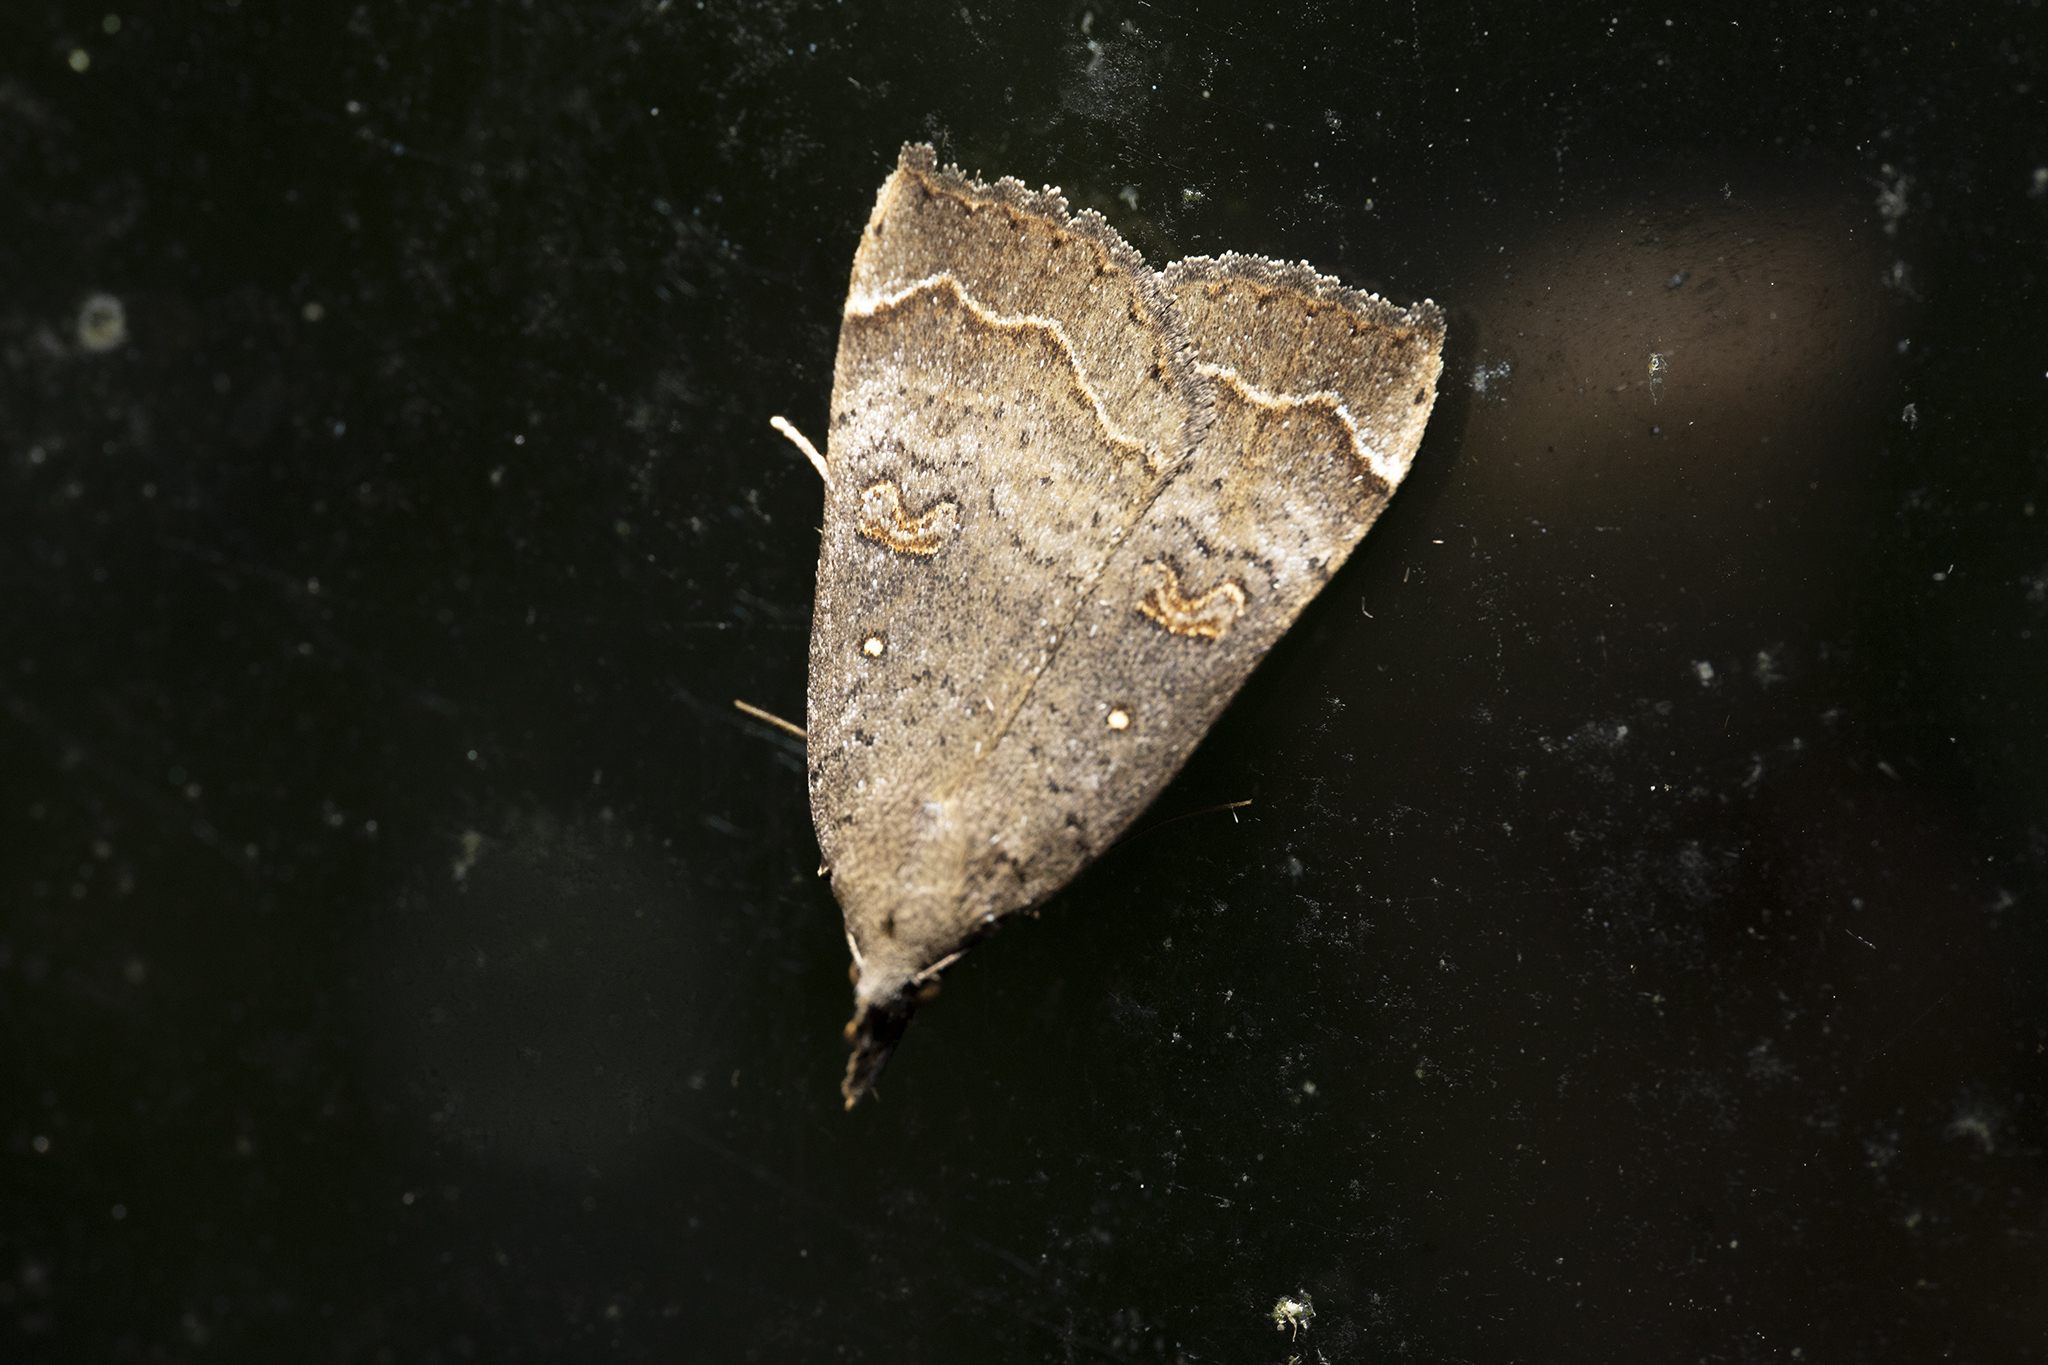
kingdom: Animalia
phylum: Arthropoda
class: Insecta
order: Lepidoptera
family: Erebidae
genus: Rhapsa
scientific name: Rhapsa scotosialis
